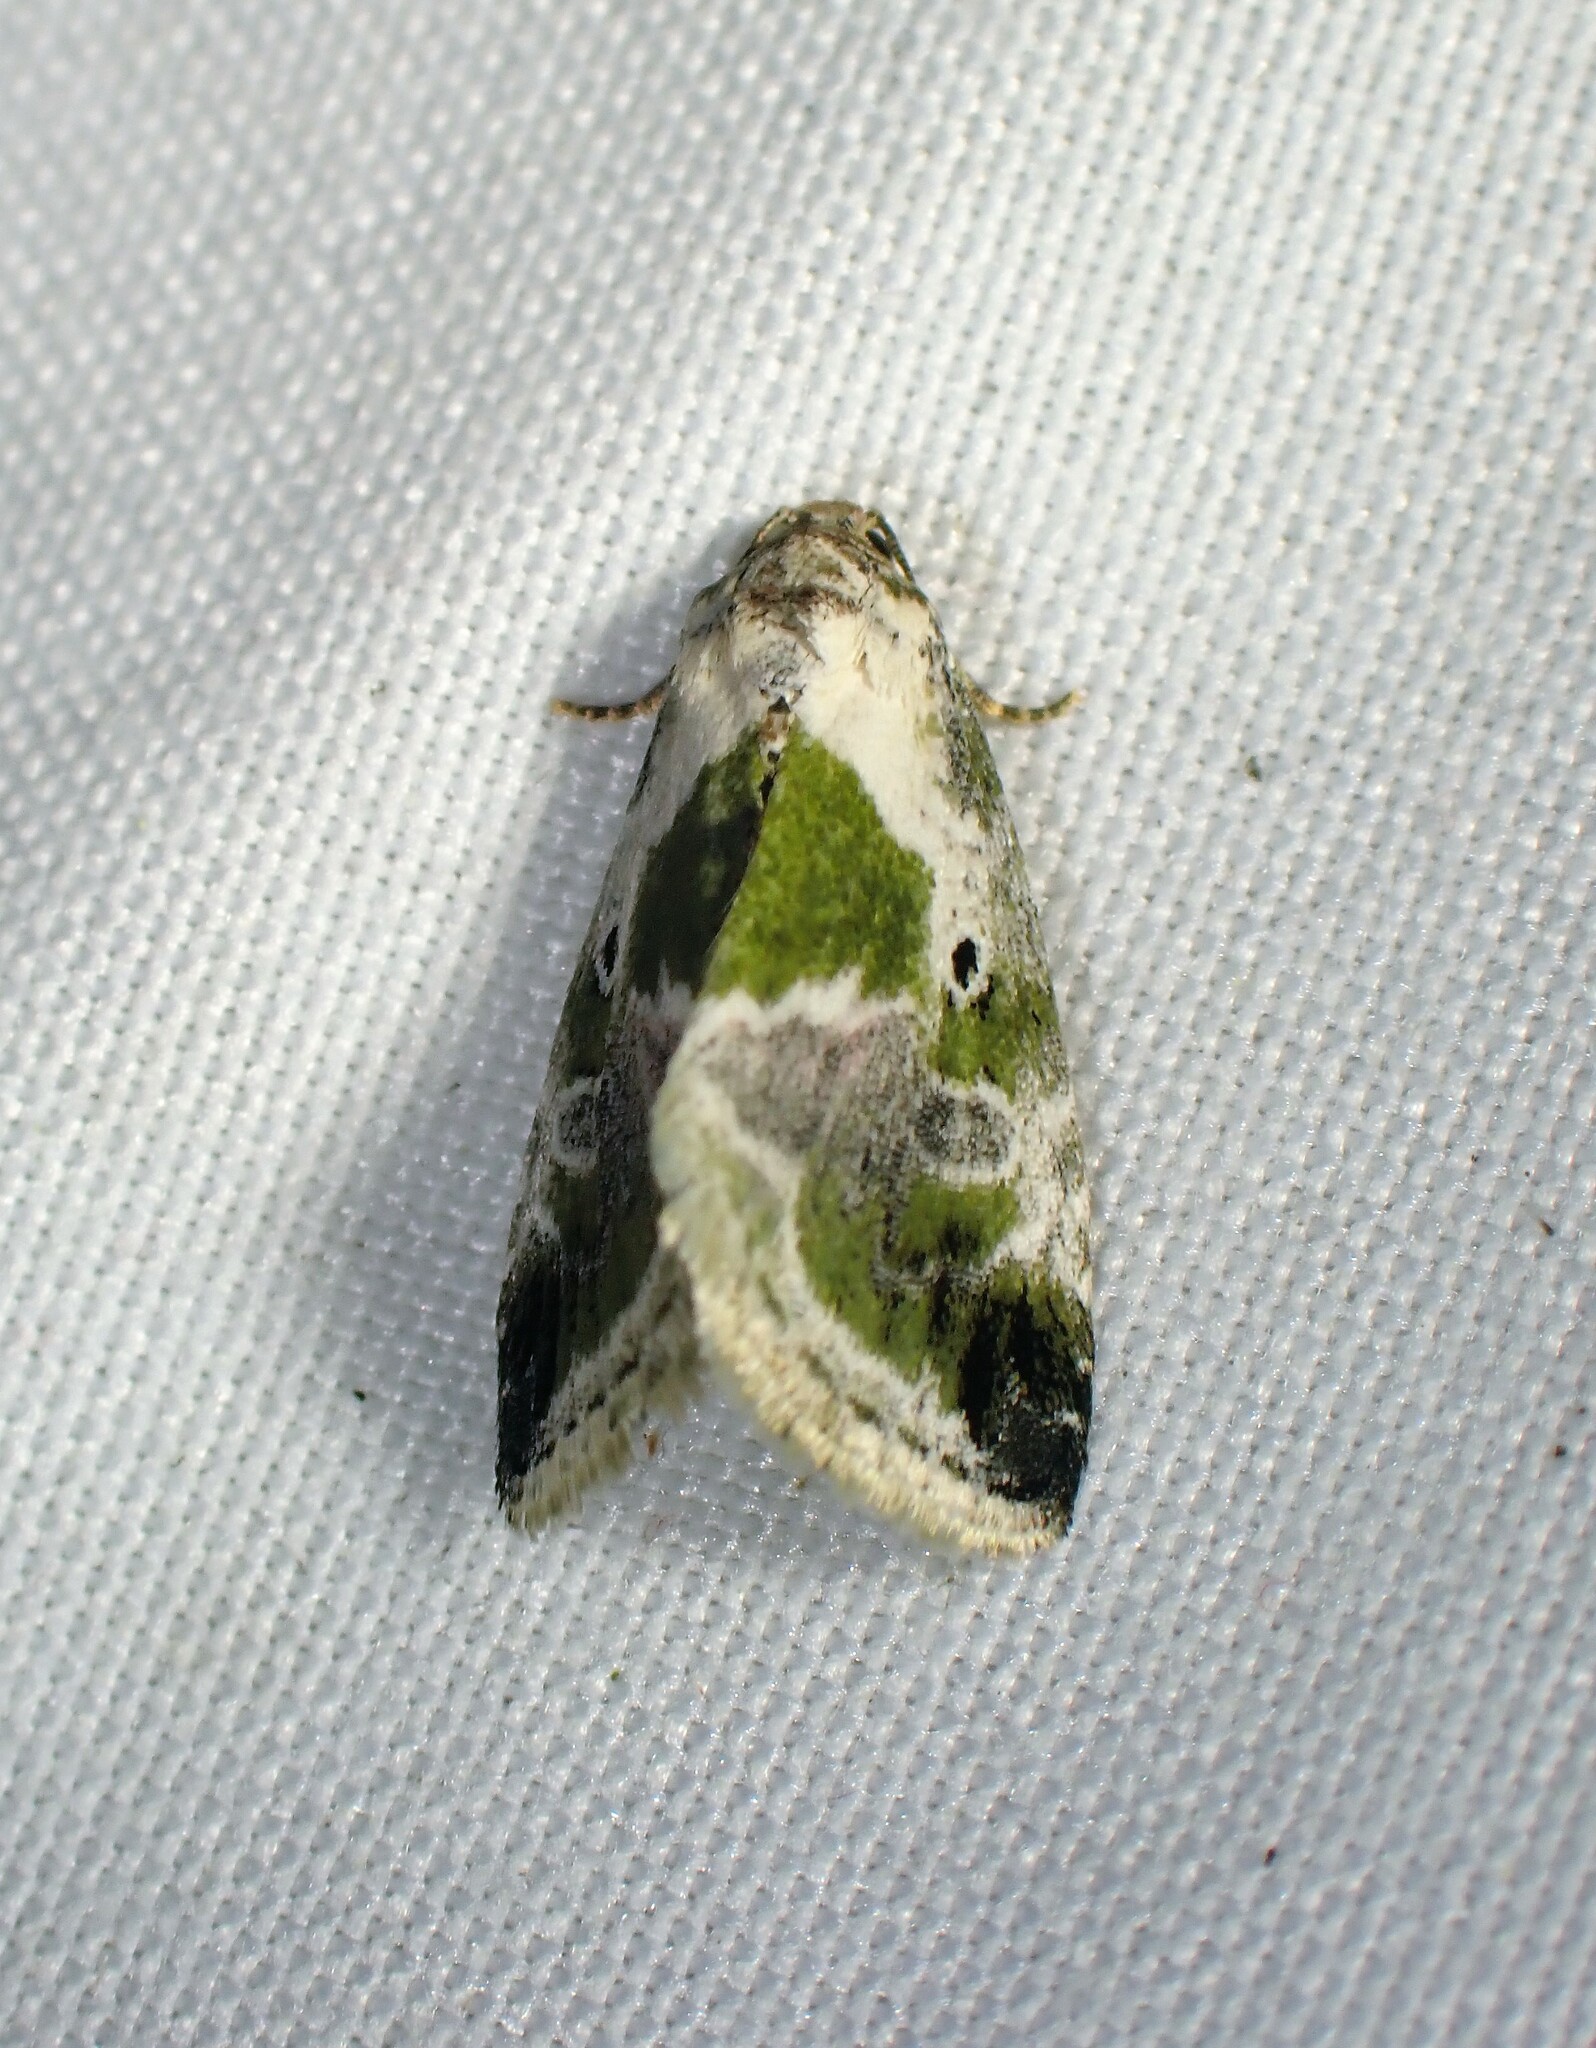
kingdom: Animalia
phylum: Arthropoda
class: Insecta
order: Lepidoptera
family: Noctuidae
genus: Maliattha
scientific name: Maliattha synochitis
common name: Black-dotted glyph
